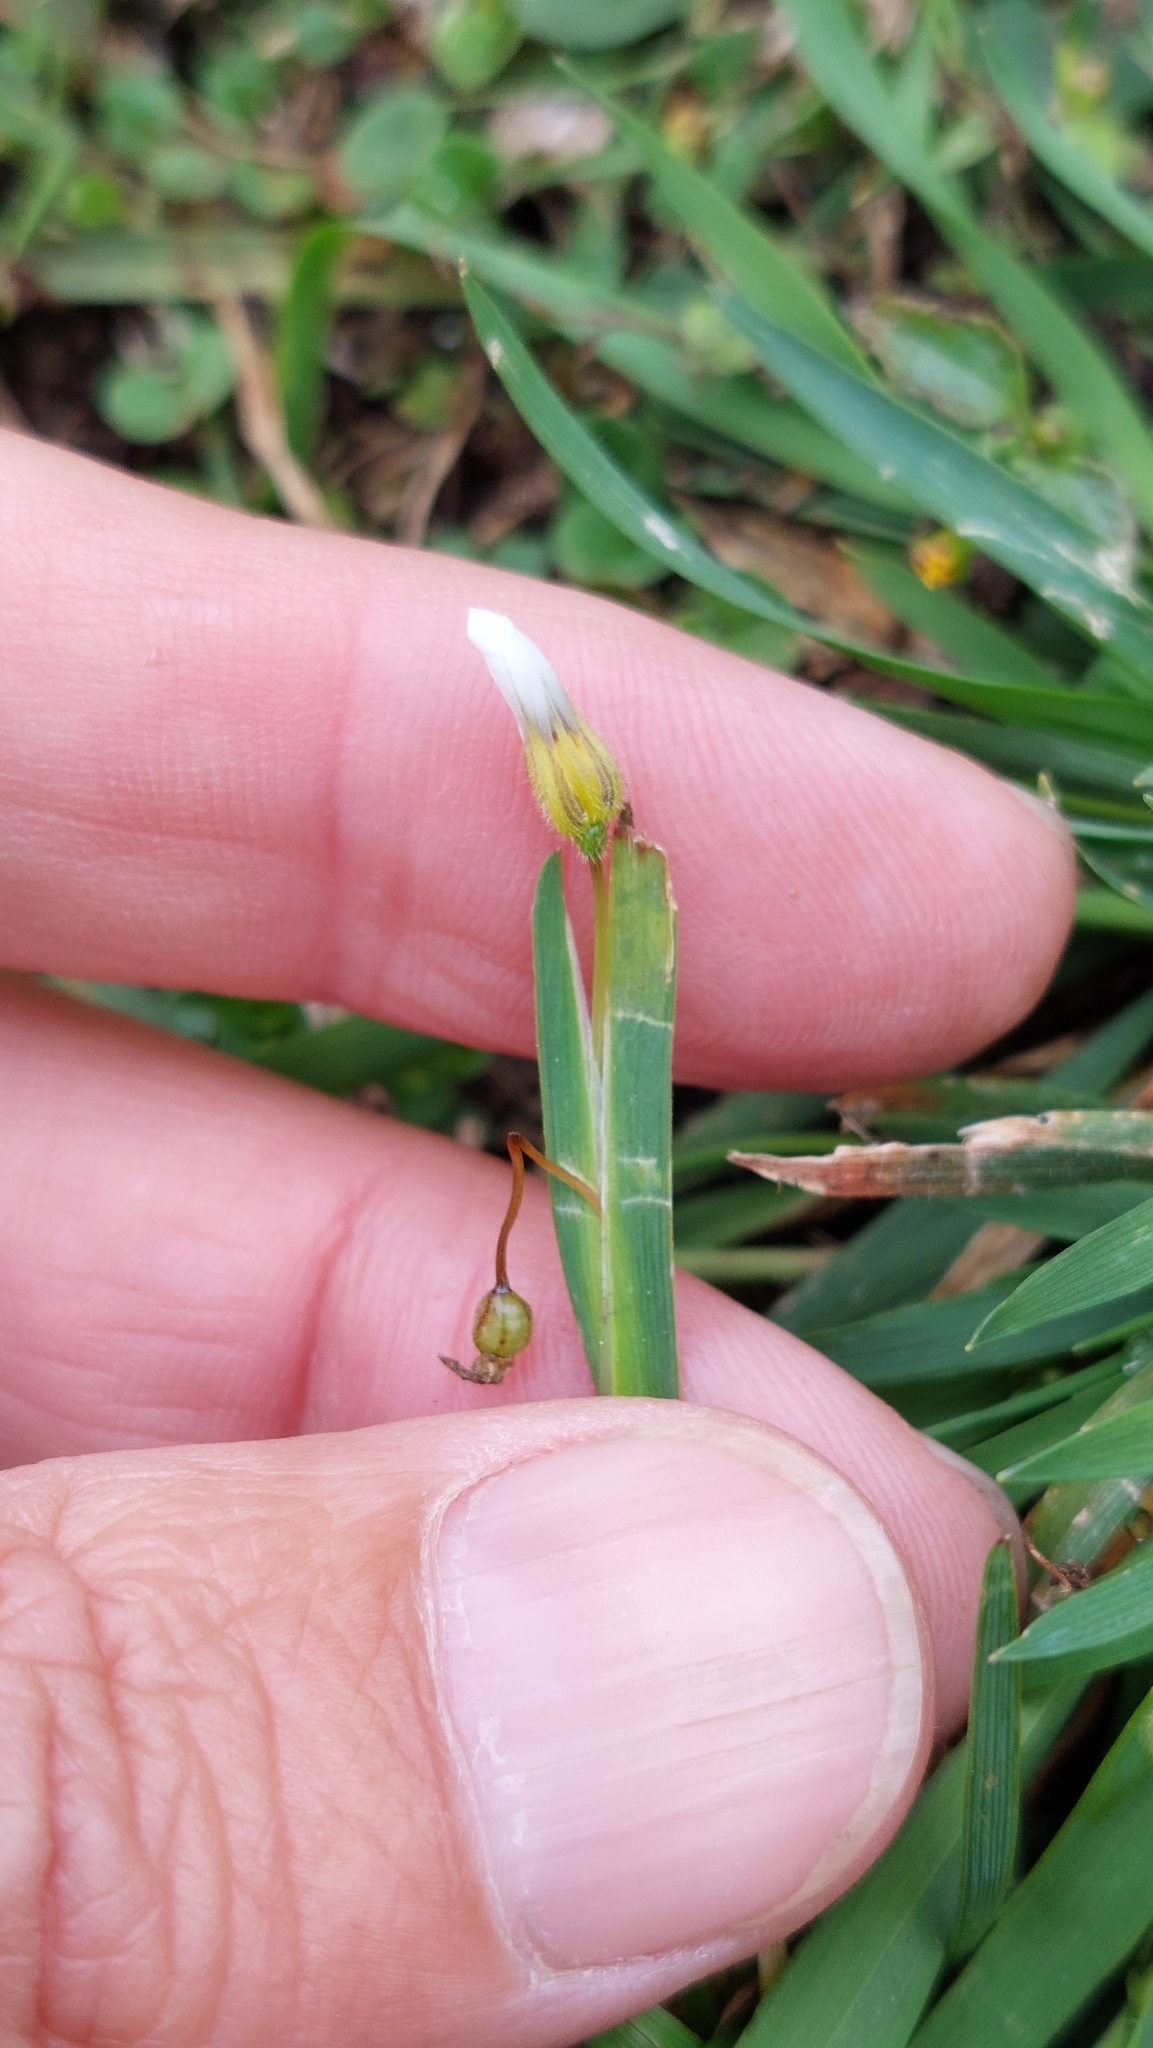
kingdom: Plantae
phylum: Tracheophyta
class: Liliopsida
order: Asparagales
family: Iridaceae
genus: Sisyrinchium
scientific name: Sisyrinchium micranthum
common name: Bermuda pigroot
